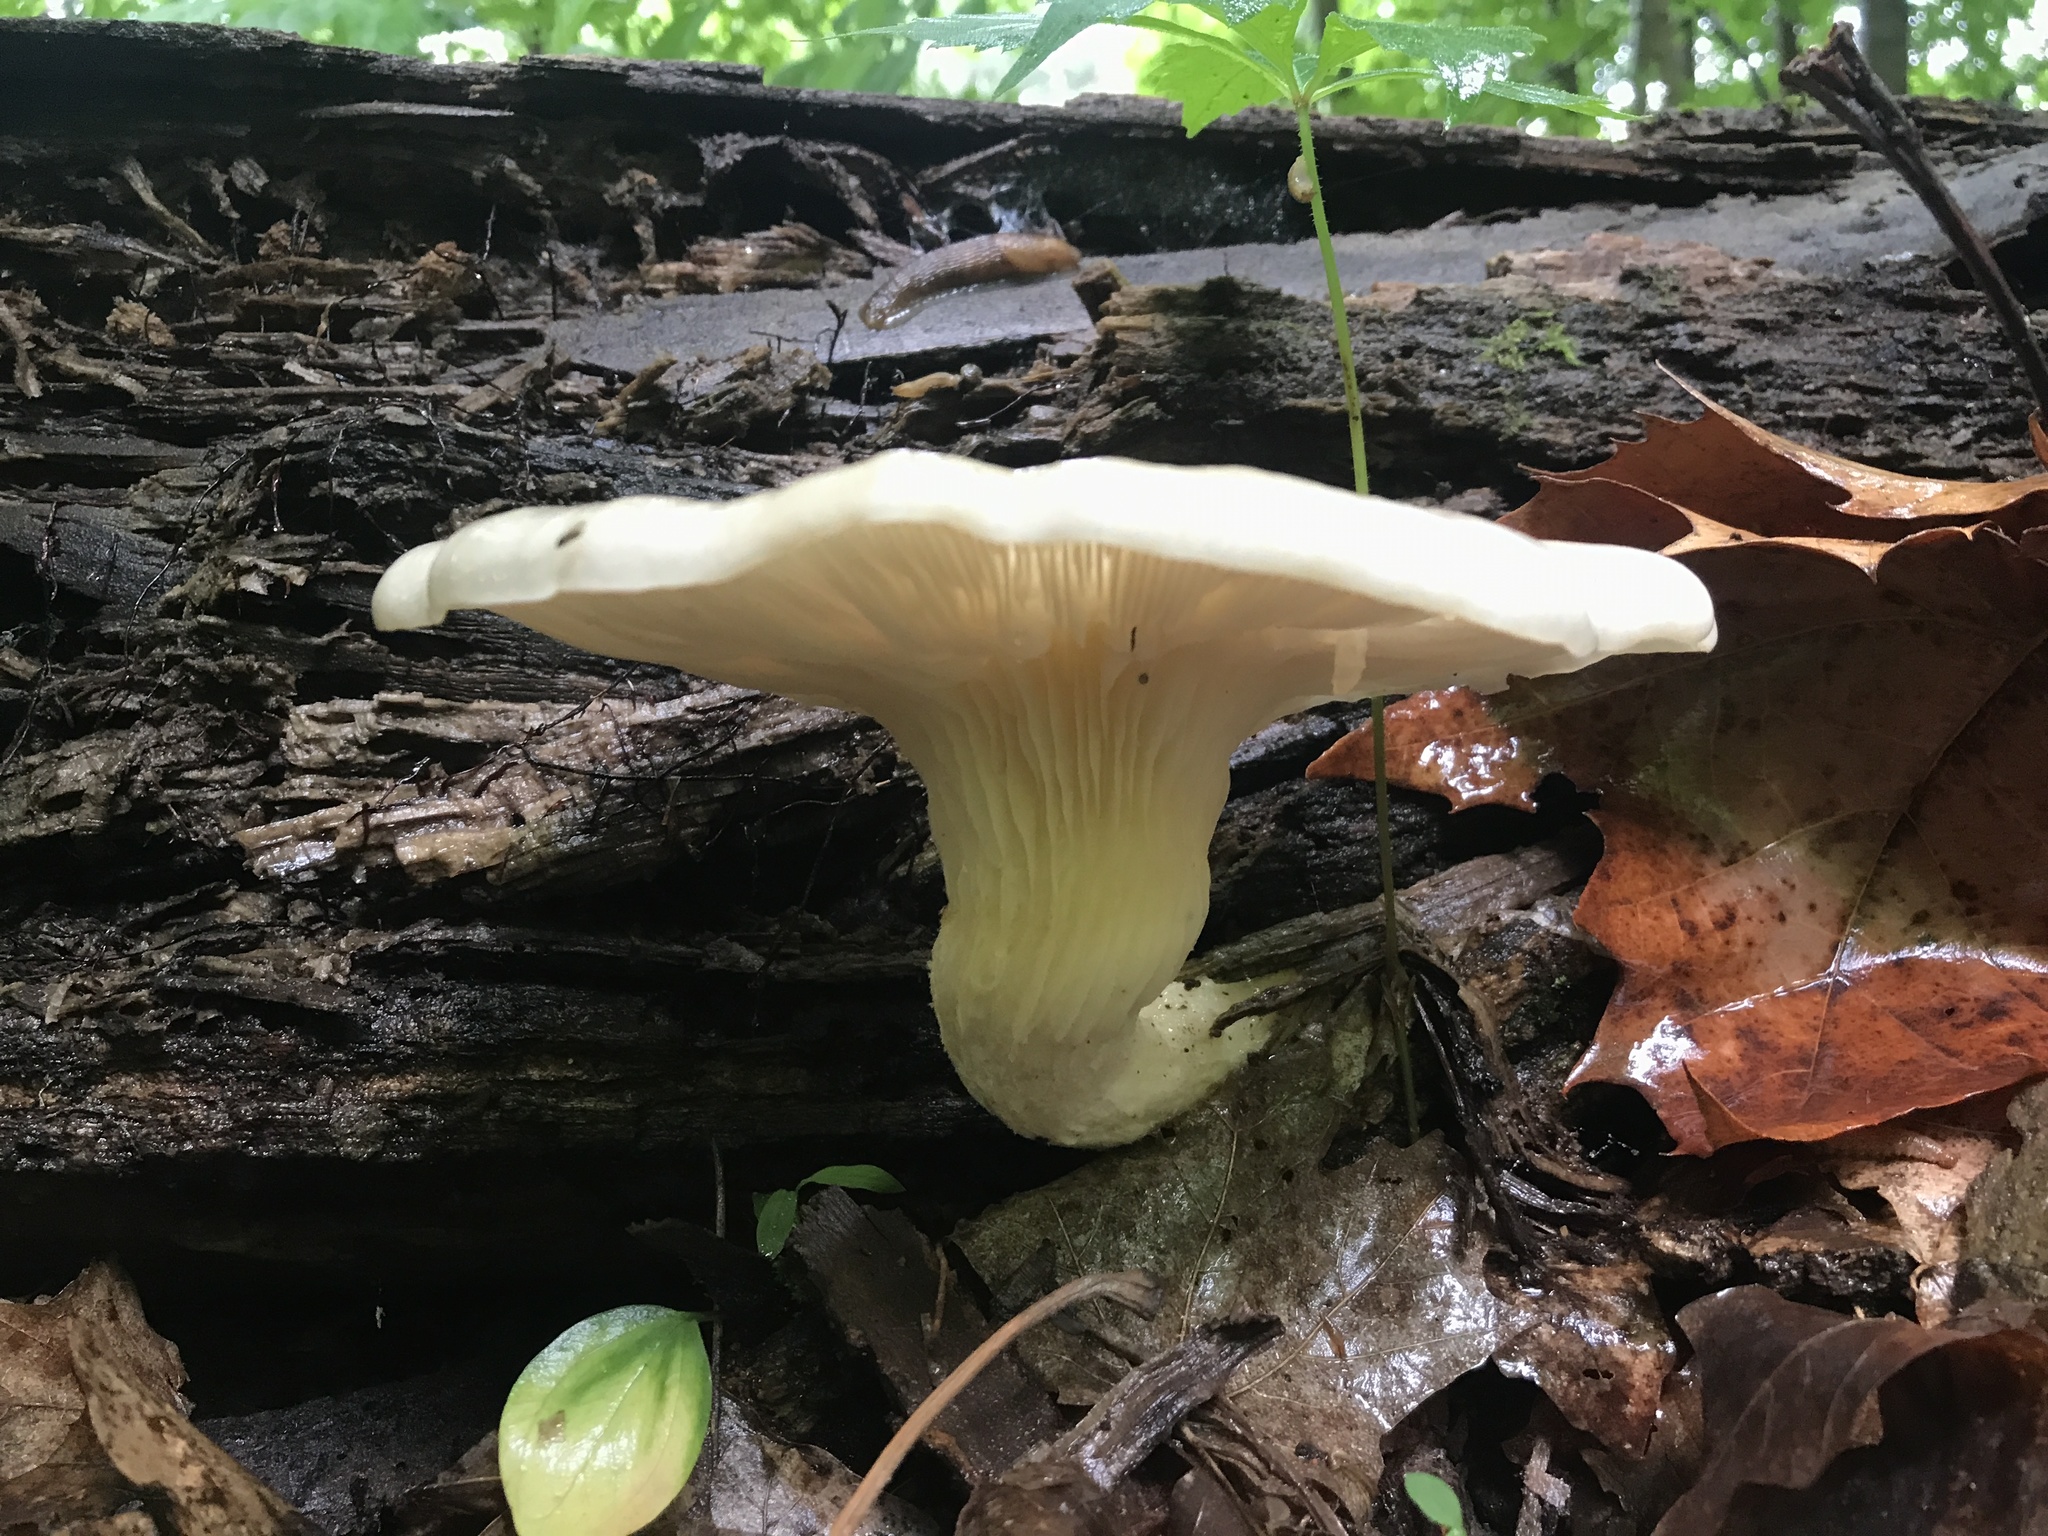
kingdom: Fungi
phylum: Basidiomycota
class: Agaricomycetes
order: Agaricales
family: Pleurotaceae
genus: Pleurotus
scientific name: Pleurotus pulmonarius
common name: Pale oyster
